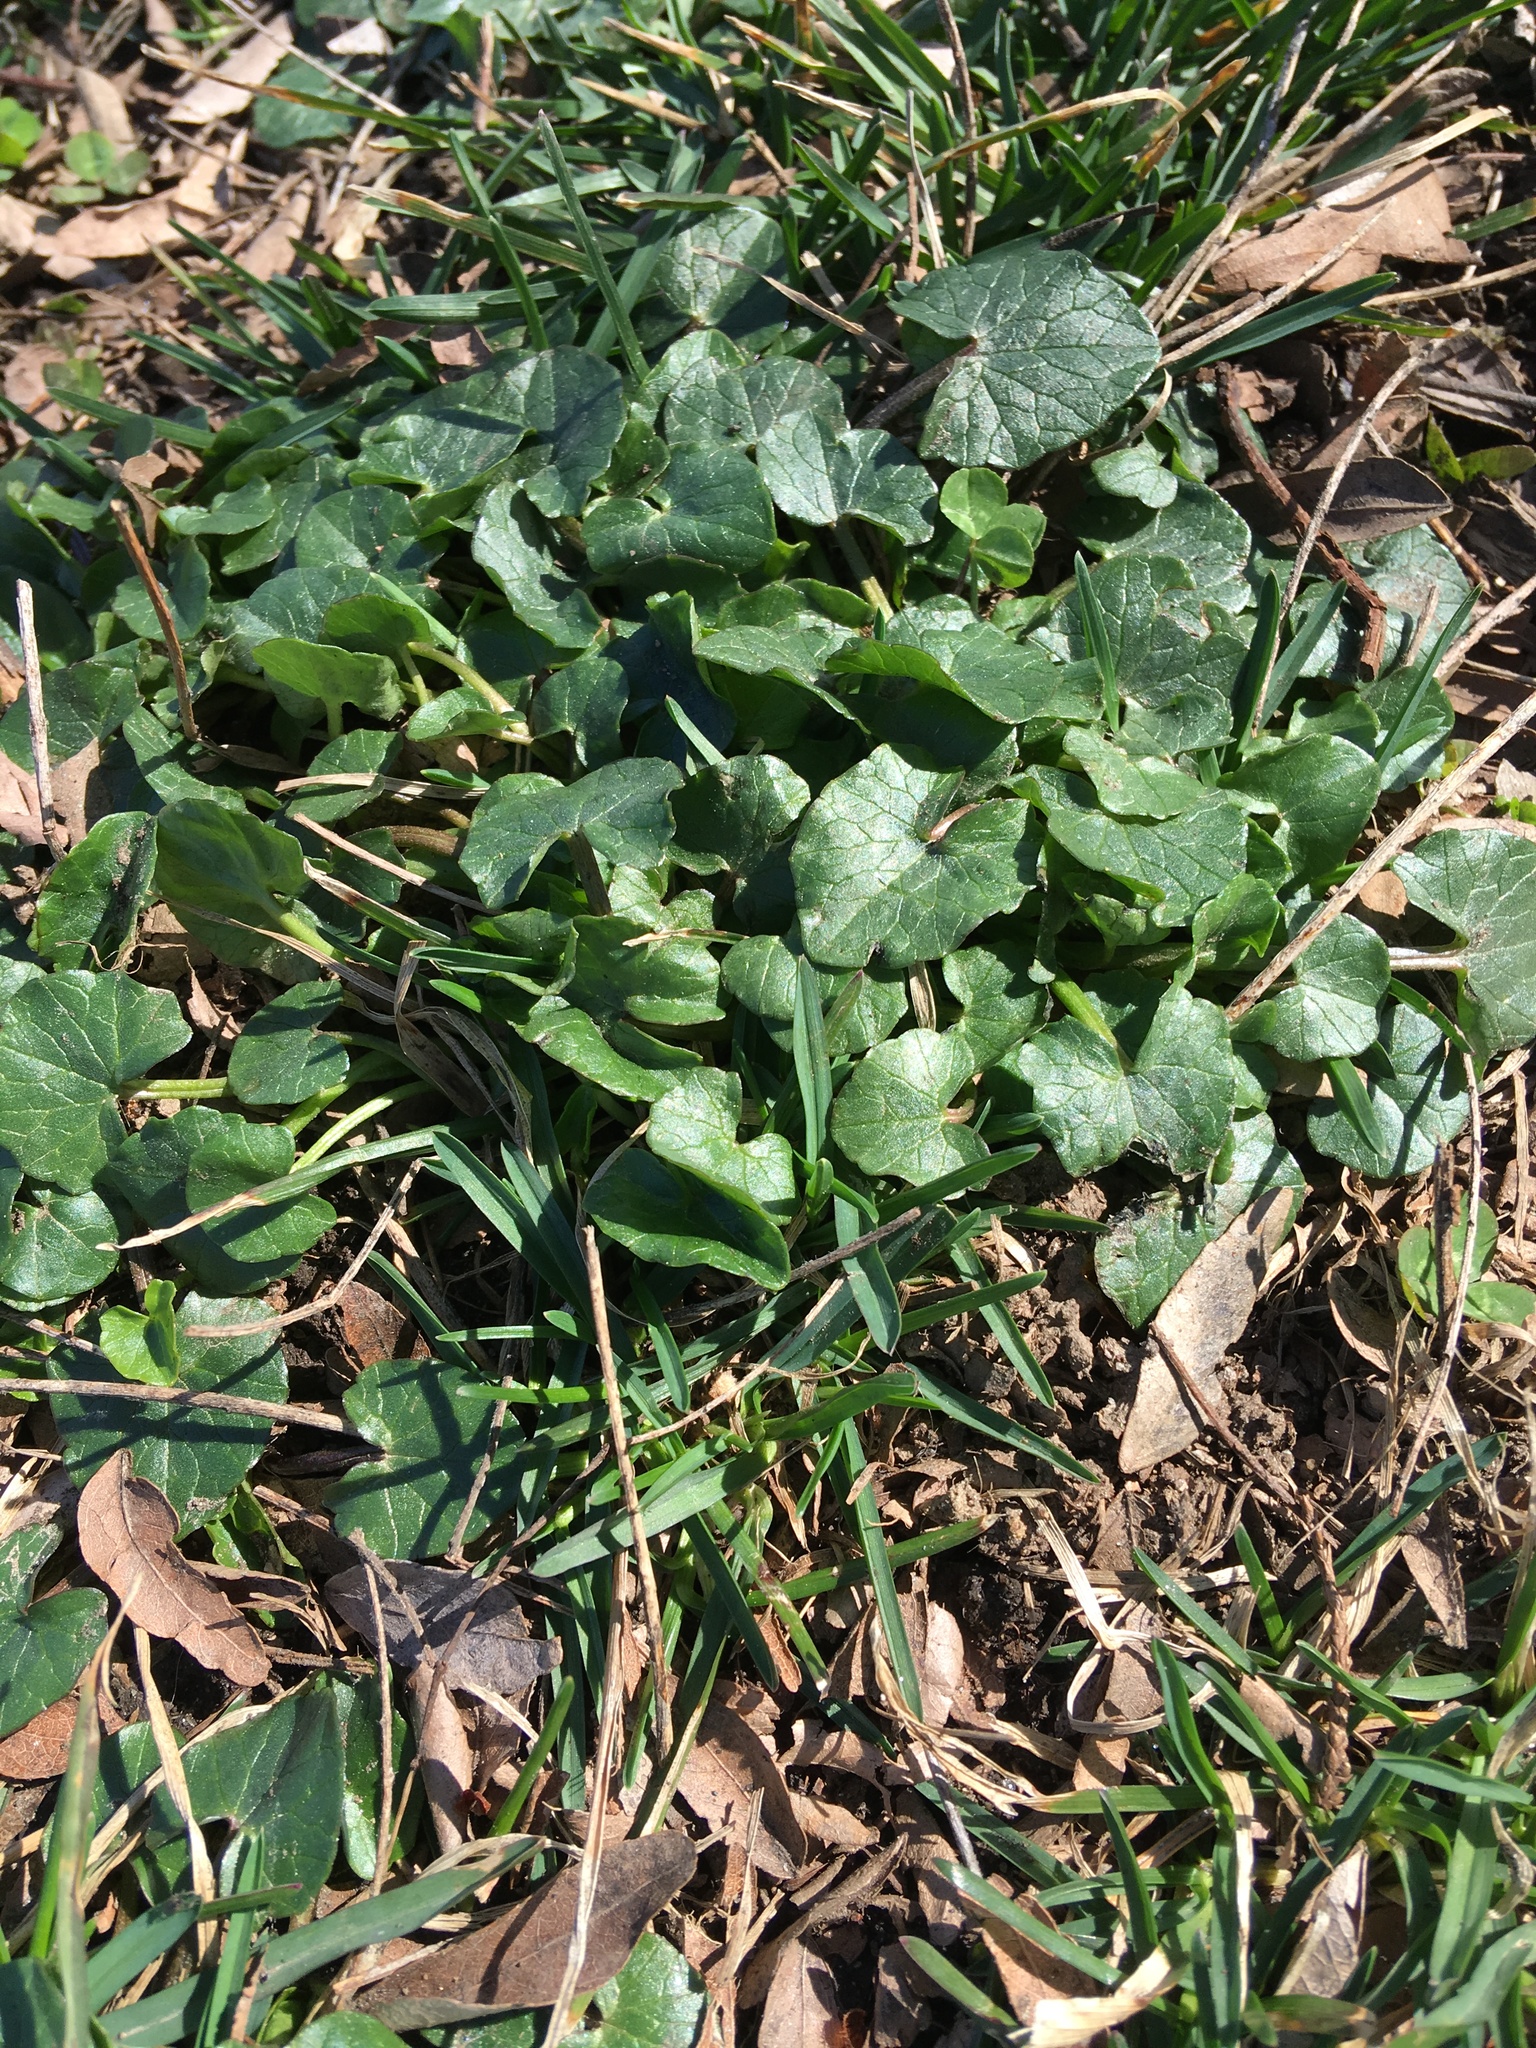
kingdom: Plantae
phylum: Tracheophyta
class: Magnoliopsida
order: Ranunculales
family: Ranunculaceae
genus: Ficaria
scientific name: Ficaria verna
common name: Lesser celandine
